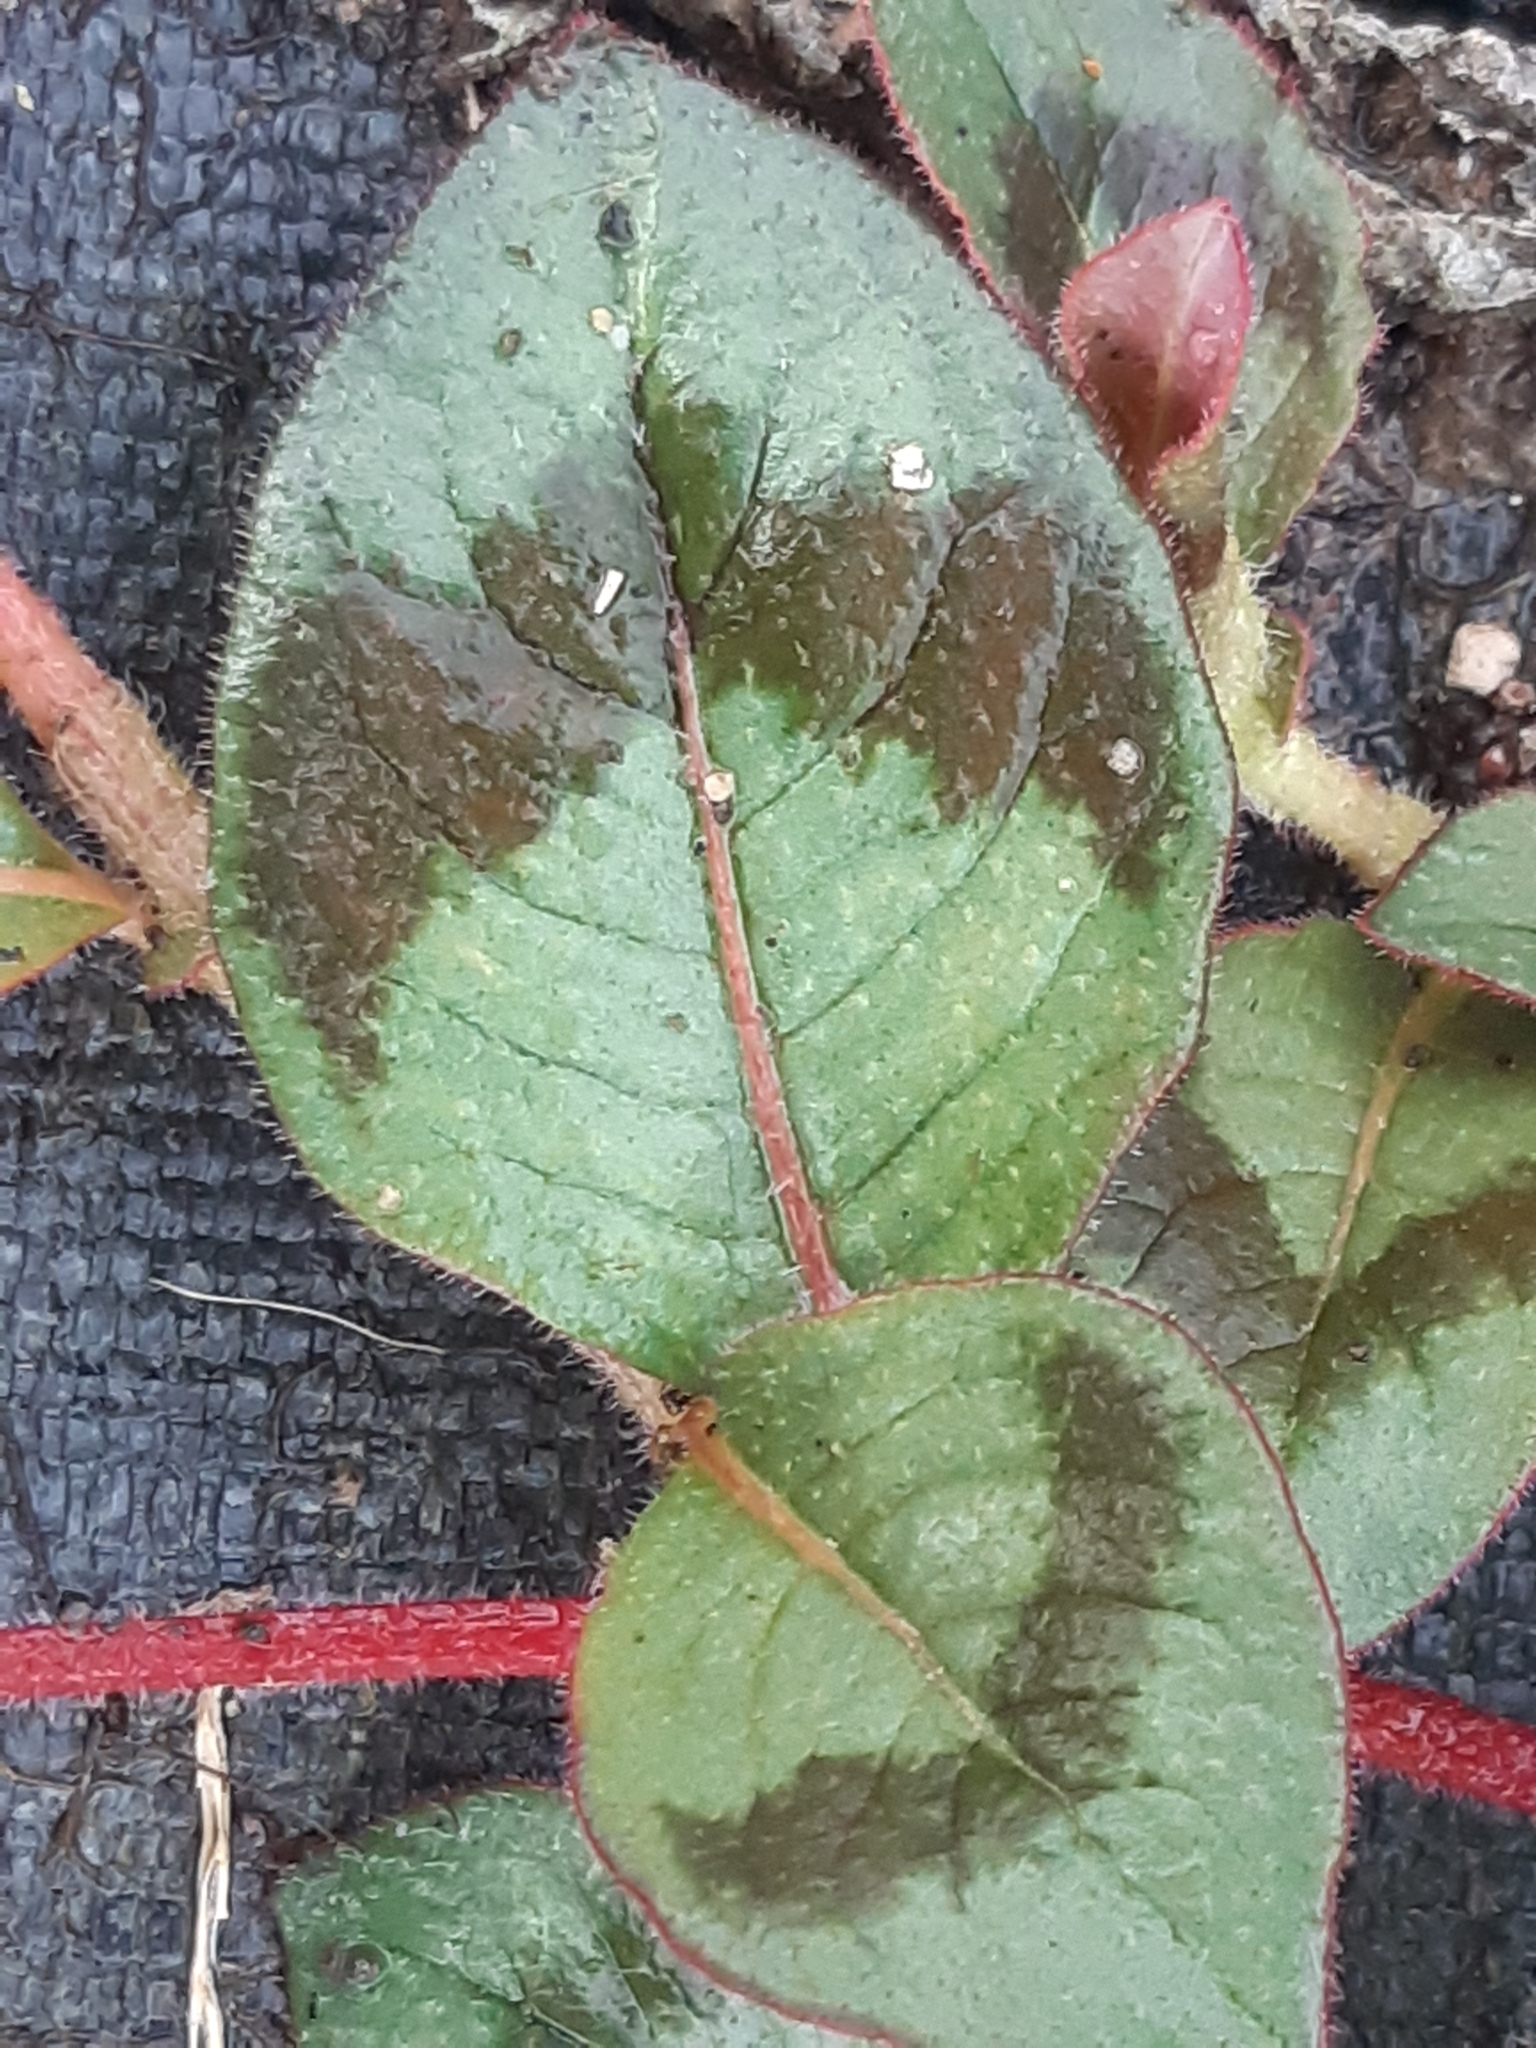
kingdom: Plantae
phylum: Tracheophyta
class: Magnoliopsida
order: Caryophyllales
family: Polygonaceae
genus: Persicaria
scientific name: Persicaria capitata
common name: Pinkhead smartweed
